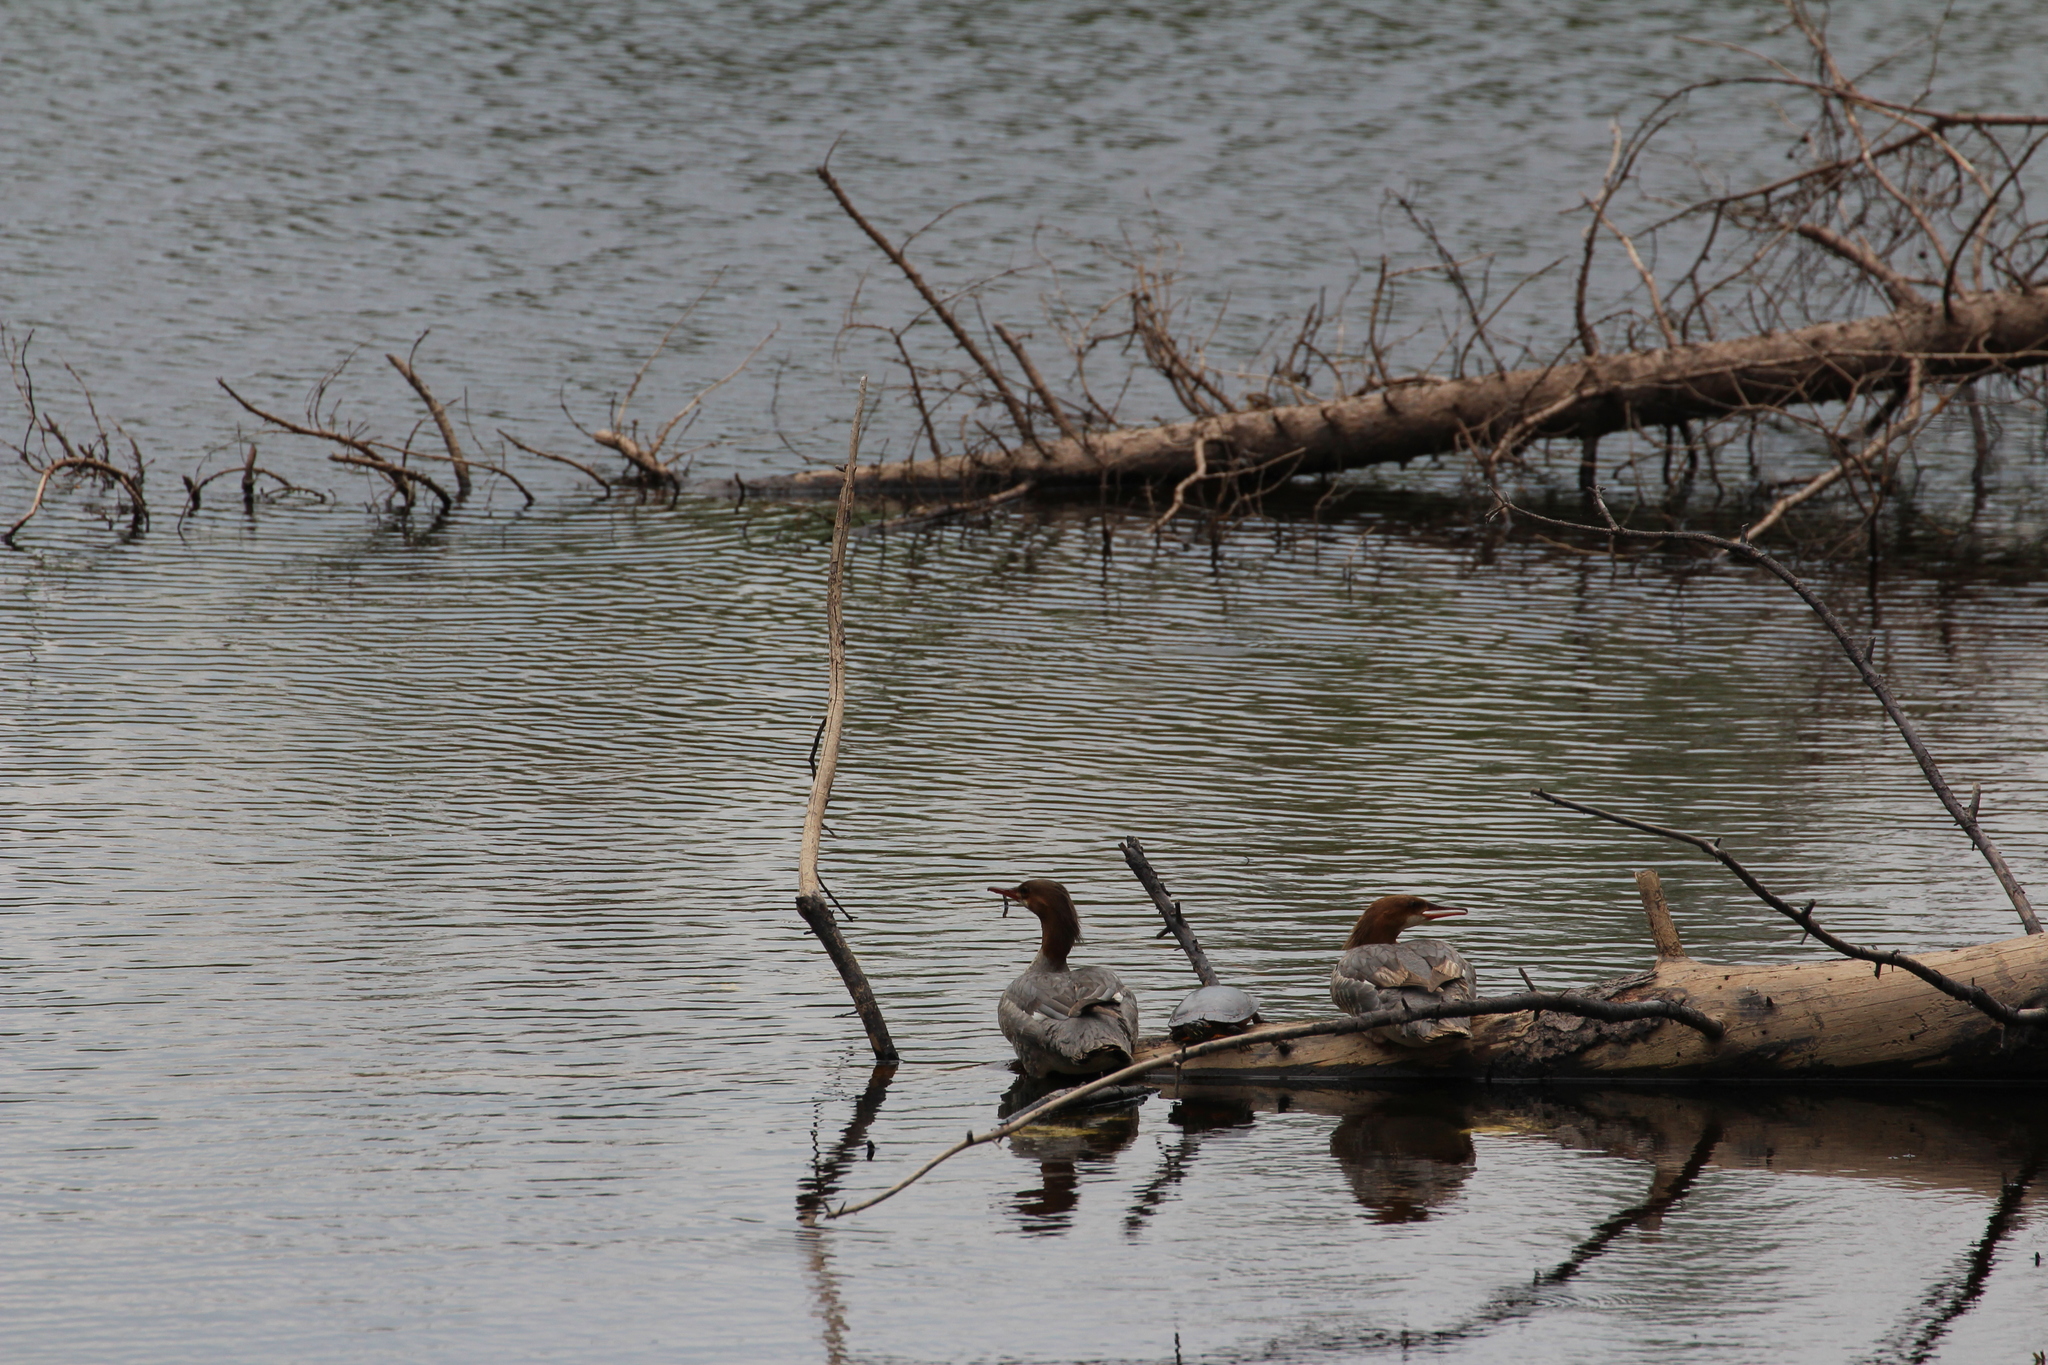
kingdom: Animalia
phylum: Chordata
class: Testudines
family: Emydidae
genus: Chrysemys
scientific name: Chrysemys picta
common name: Painted turtle
